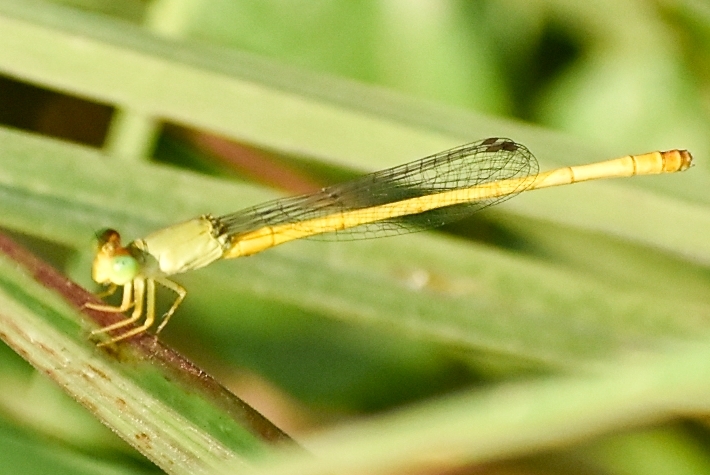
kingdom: Animalia
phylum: Arthropoda
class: Insecta
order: Odonata
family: Coenagrionidae
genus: Ceriagrion
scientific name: Ceriagrion coromandelianum
